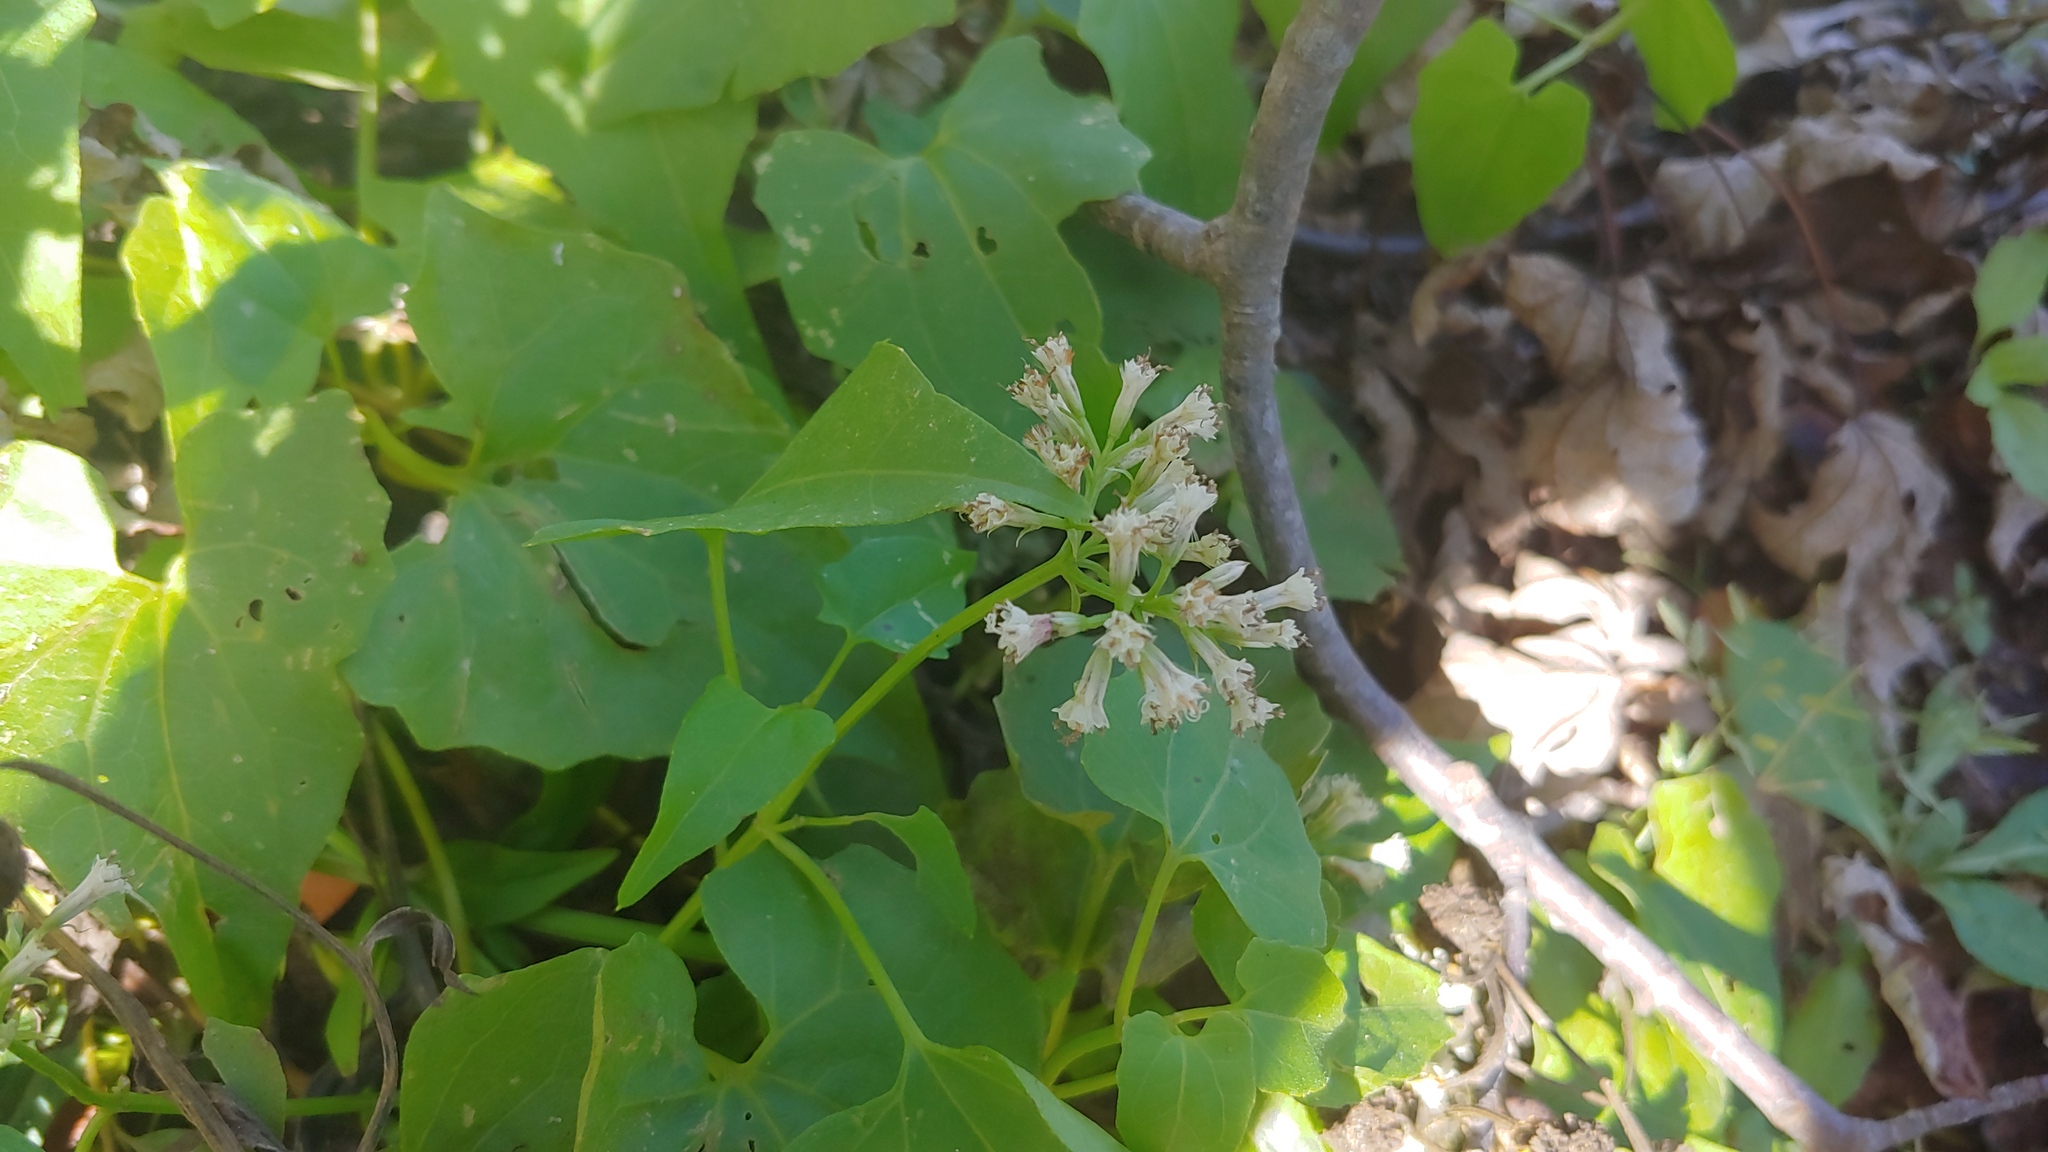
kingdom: Plantae
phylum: Tracheophyta
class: Magnoliopsida
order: Asterales
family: Asteraceae
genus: Mikania
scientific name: Mikania scandens
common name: Climbing hempvine
